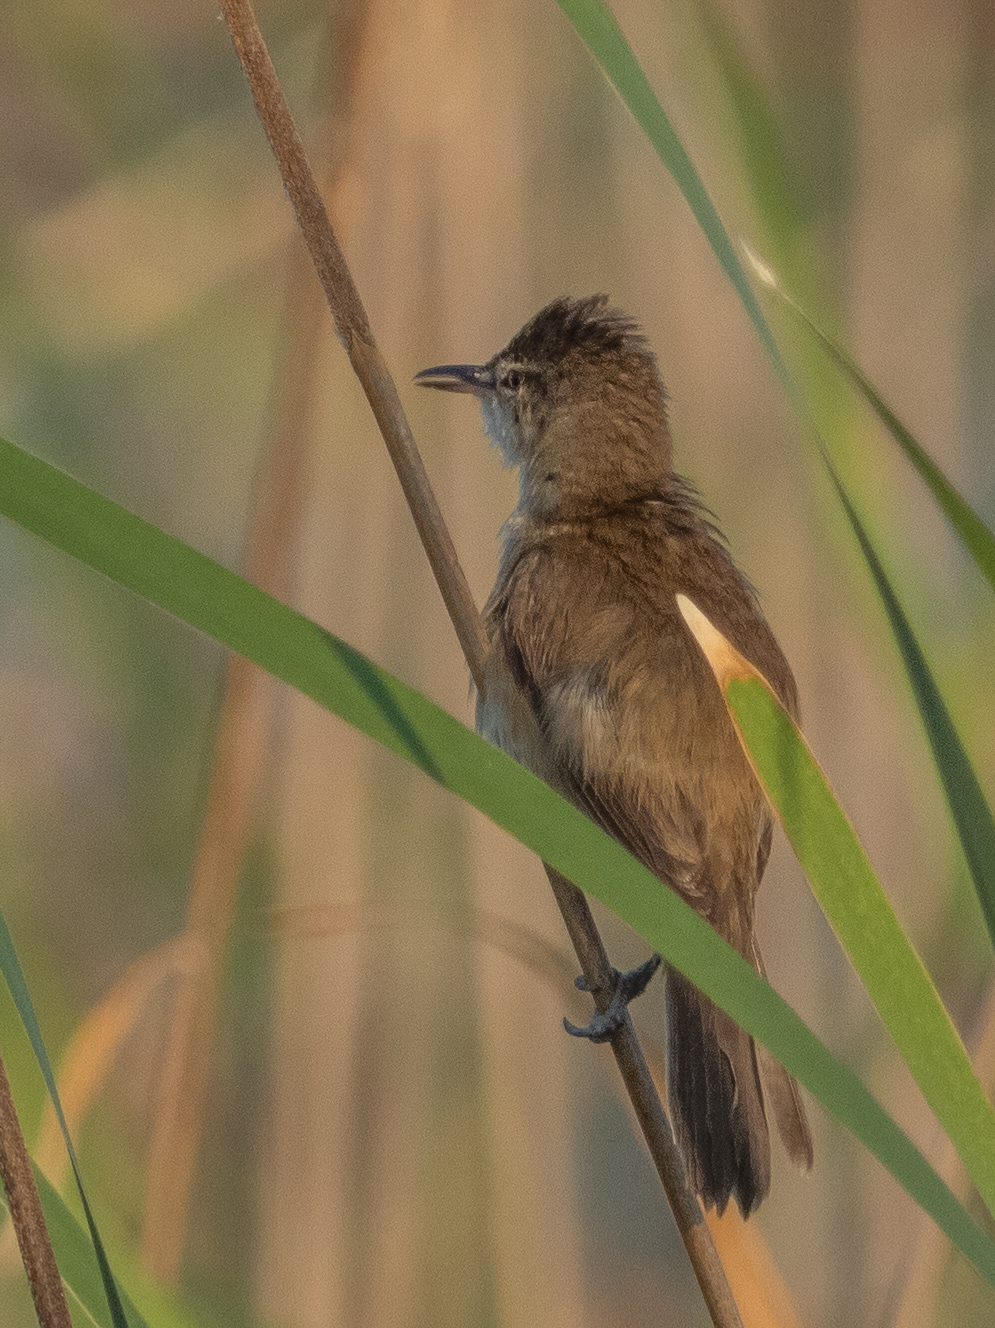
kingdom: Animalia
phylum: Chordata
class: Aves
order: Passeriformes
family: Acrocephalidae
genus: Acrocephalus
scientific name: Acrocephalus stentoreus
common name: Clamorous reed warbler
